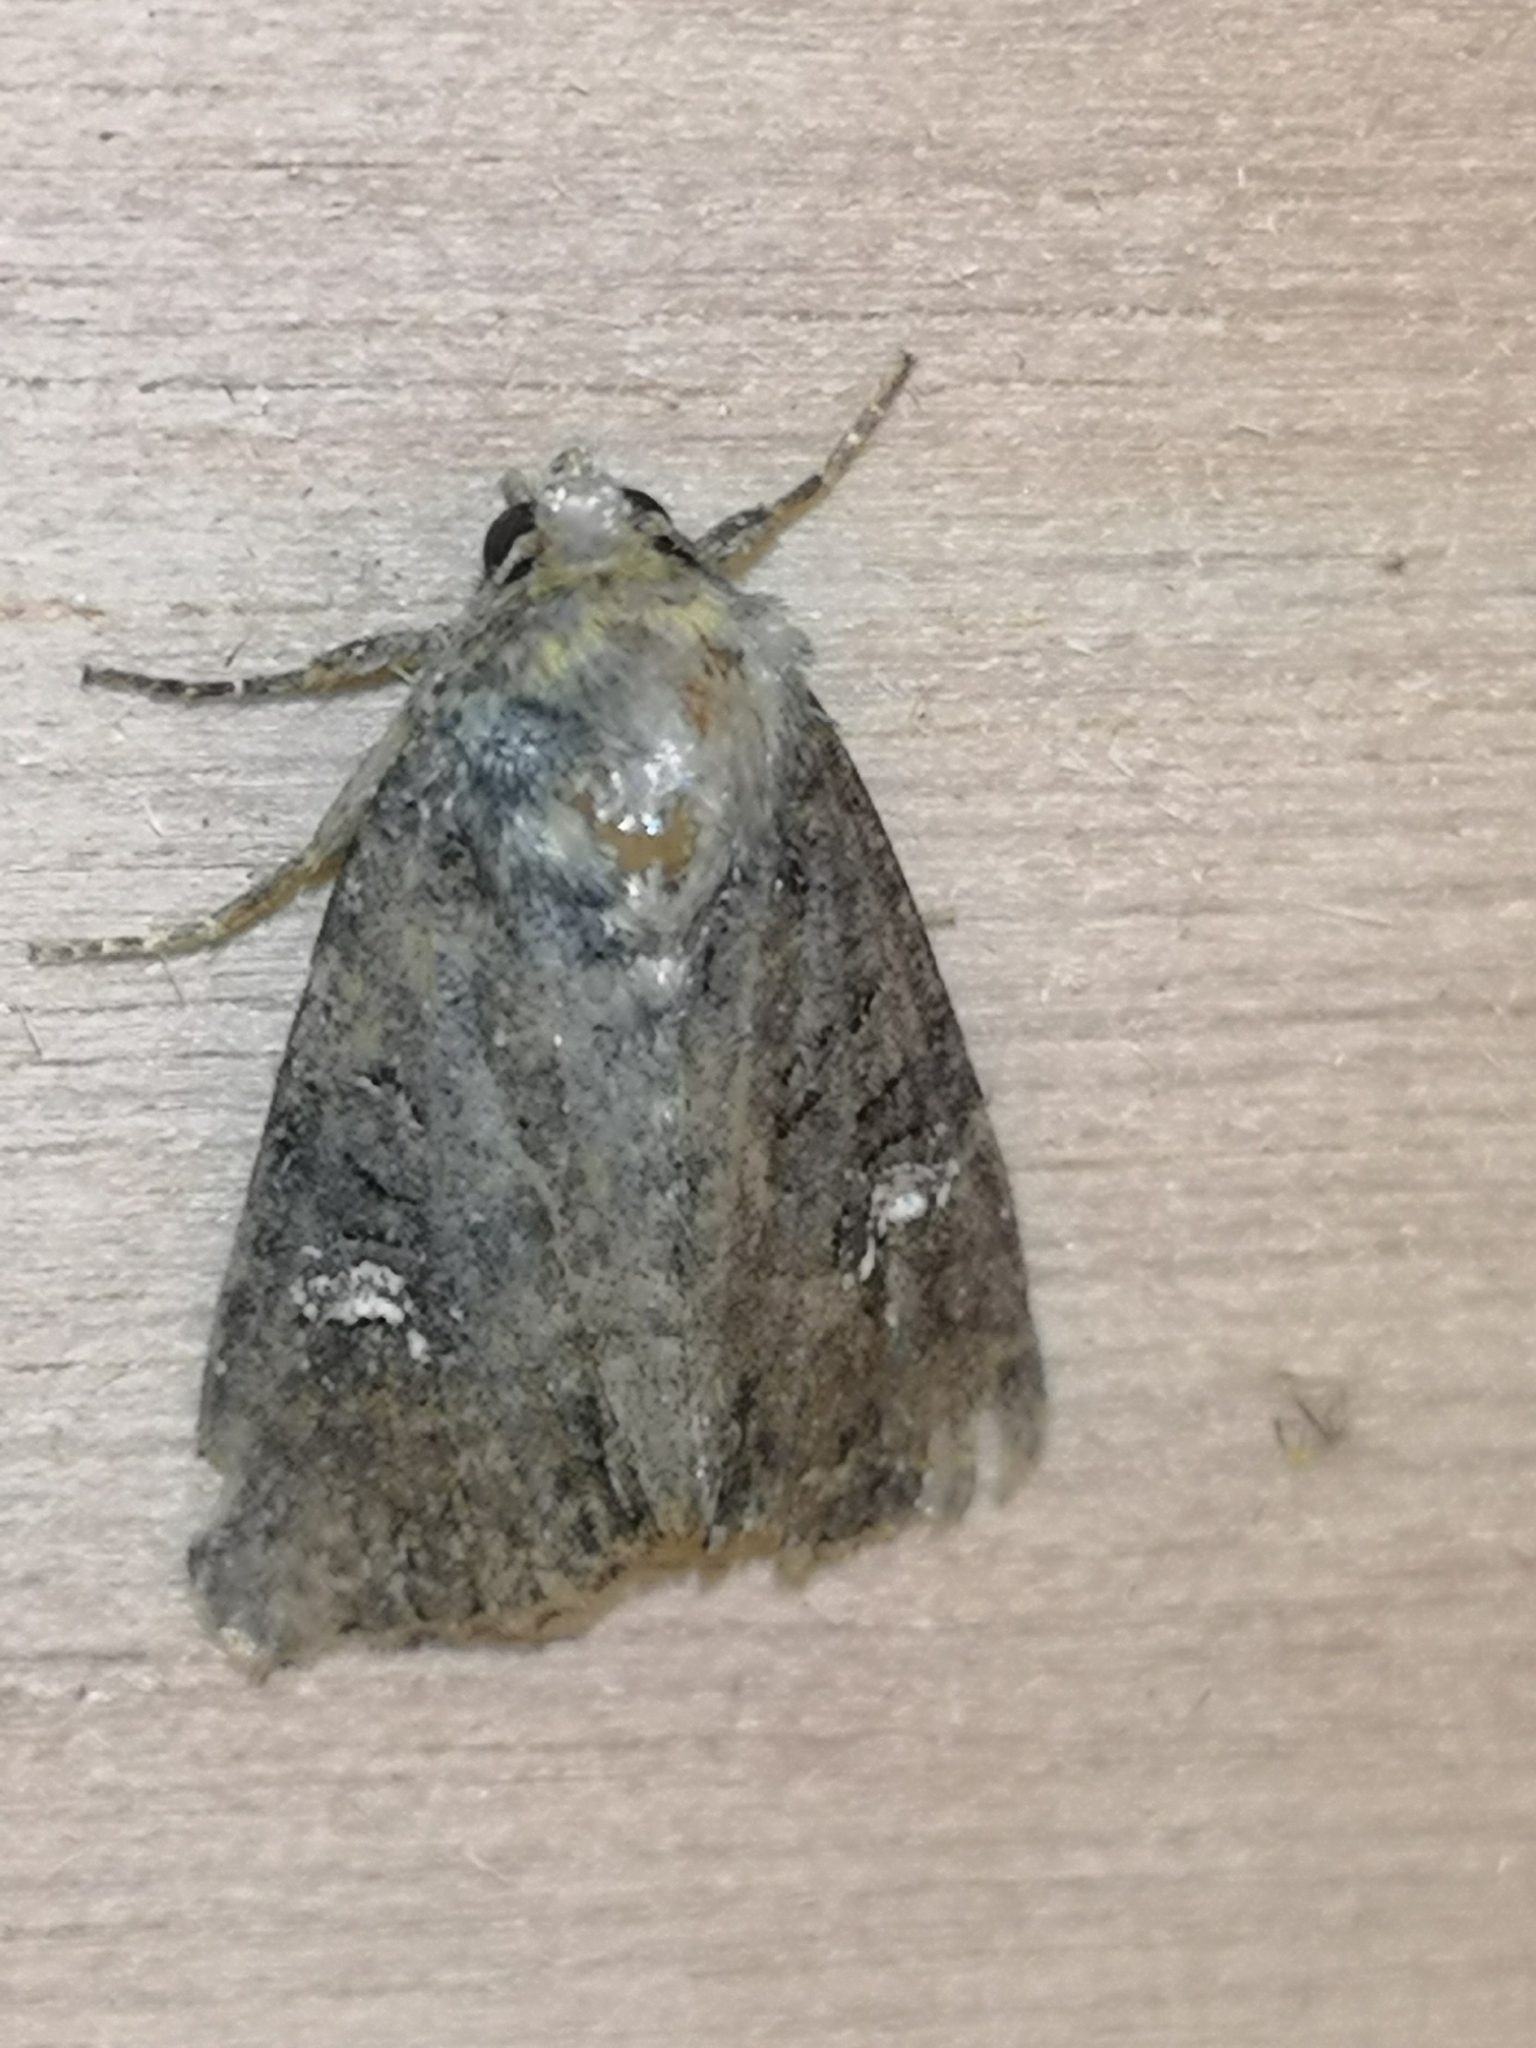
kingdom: Animalia
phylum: Arthropoda
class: Insecta
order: Lepidoptera
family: Noctuidae
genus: Mesapamea
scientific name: Mesapamea
